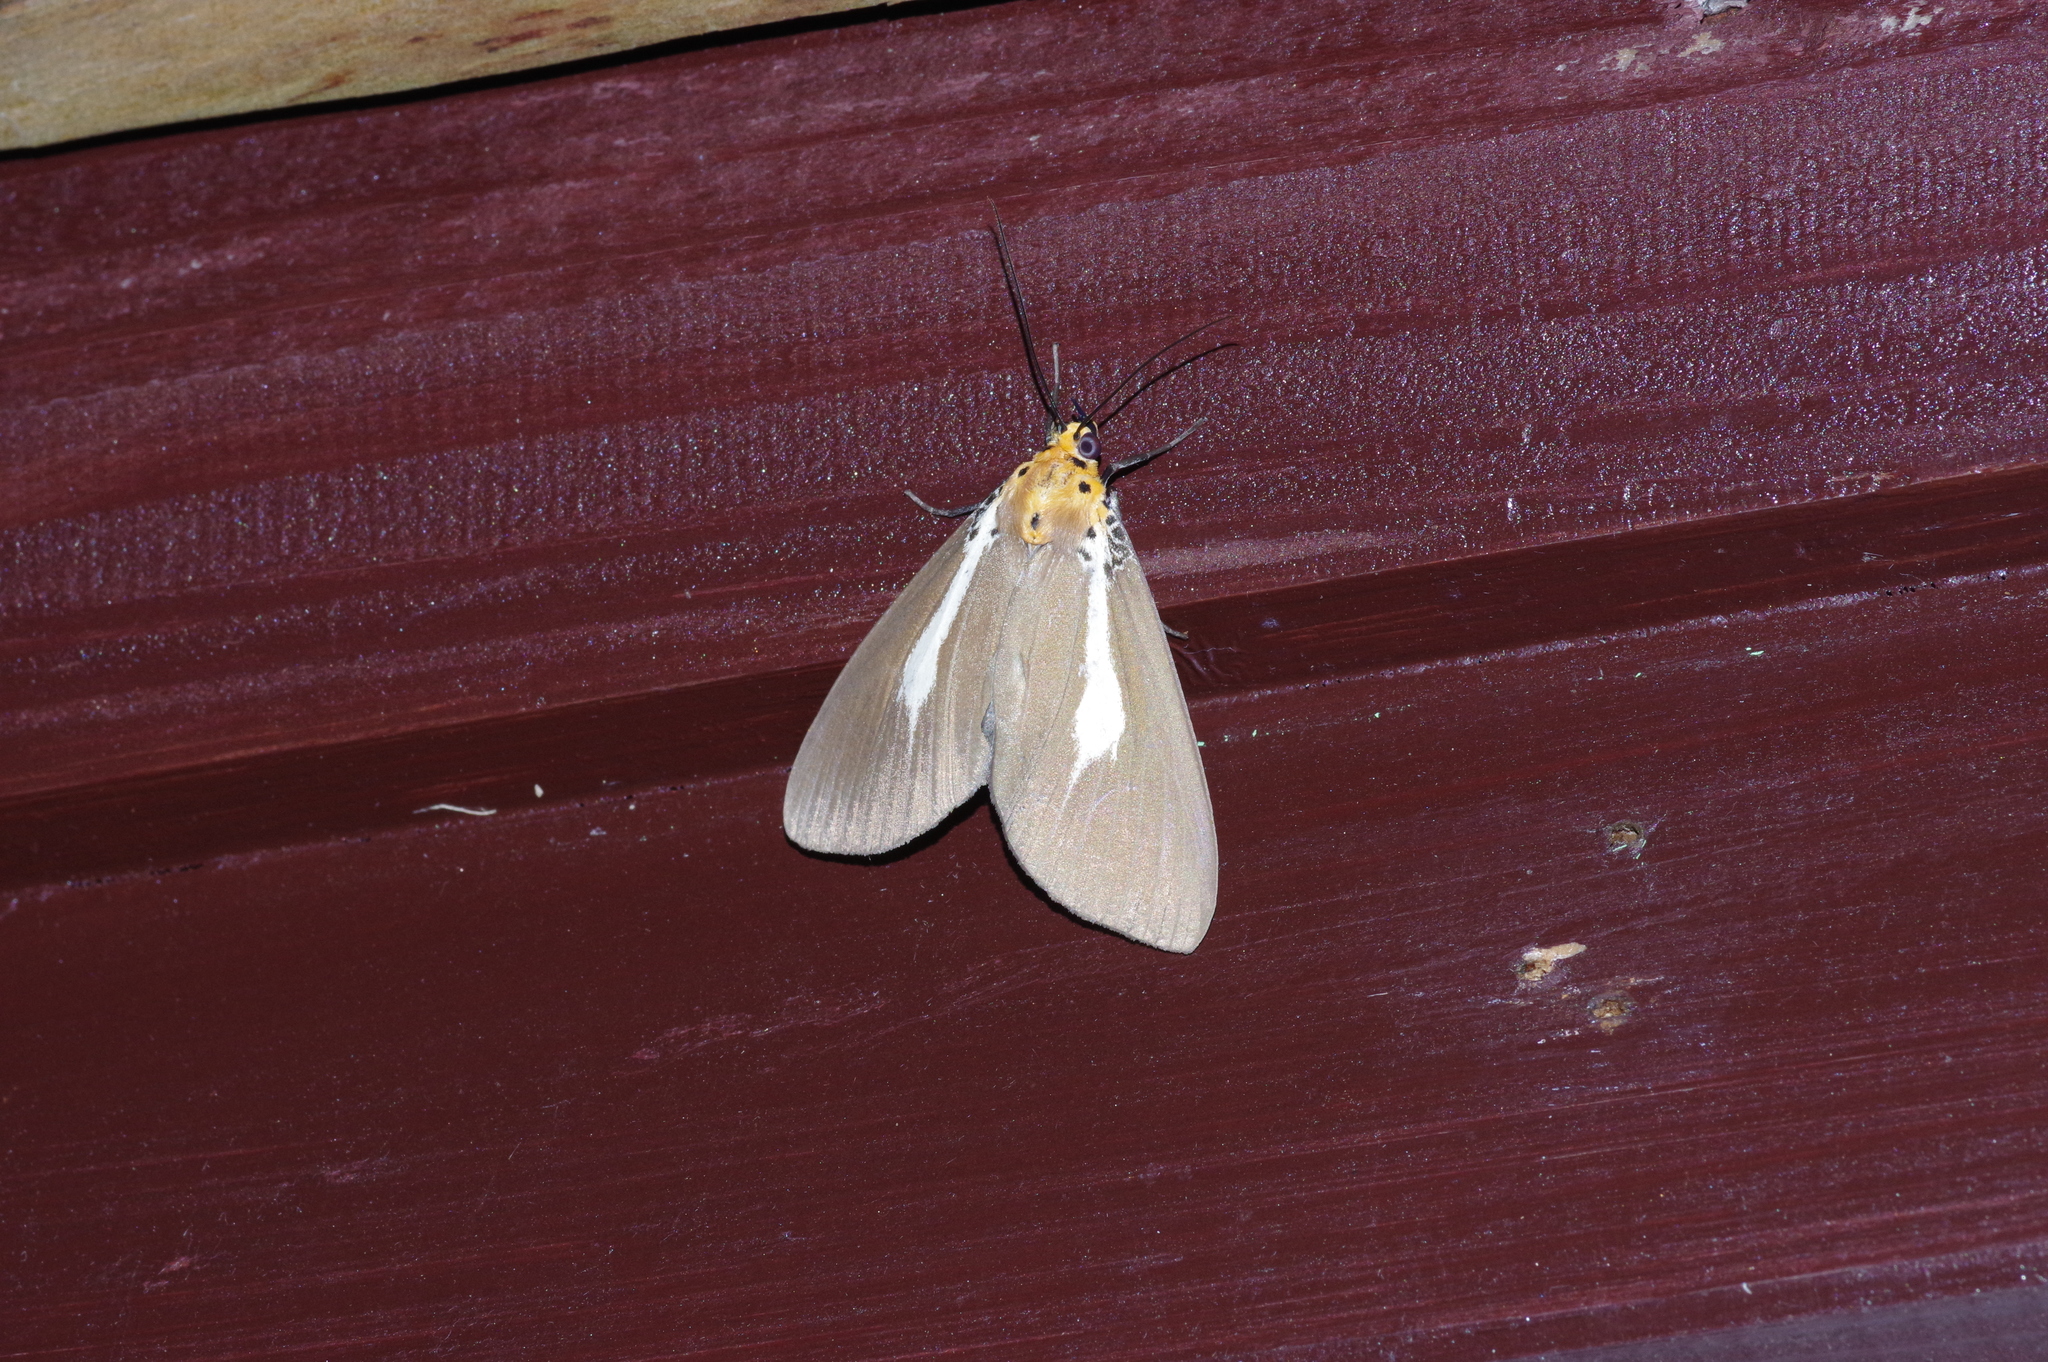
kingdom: Animalia
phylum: Arthropoda
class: Insecta
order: Lepidoptera
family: Erebidae
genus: Asota
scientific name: Asota heliconia
